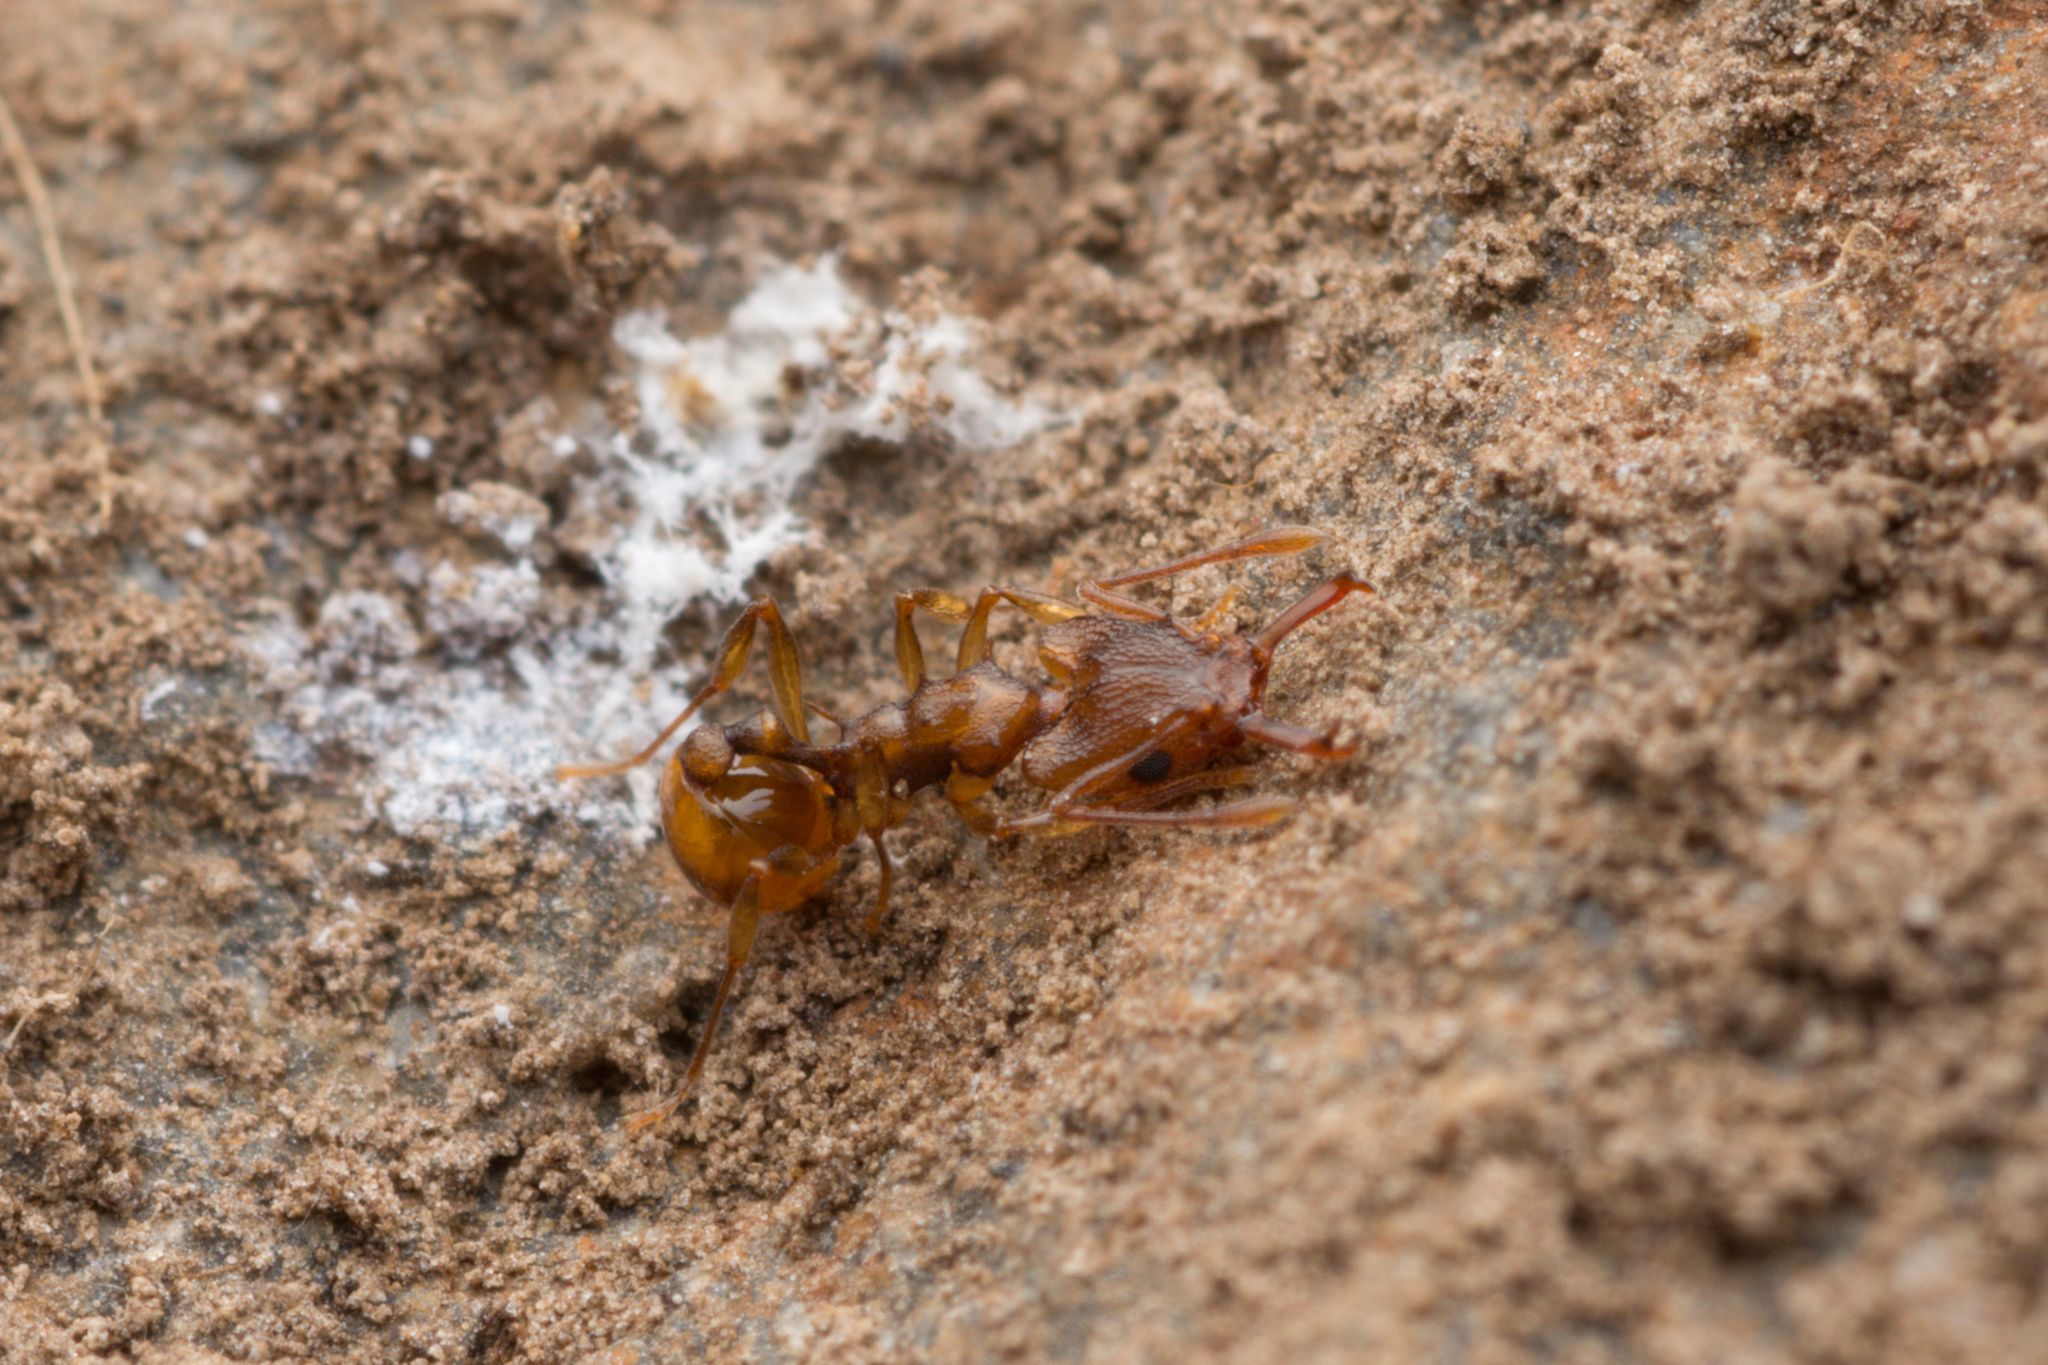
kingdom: Animalia
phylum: Arthropoda
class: Insecta
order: Hymenoptera
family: Formicidae
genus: Orectognathus
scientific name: Orectognathus clarki
